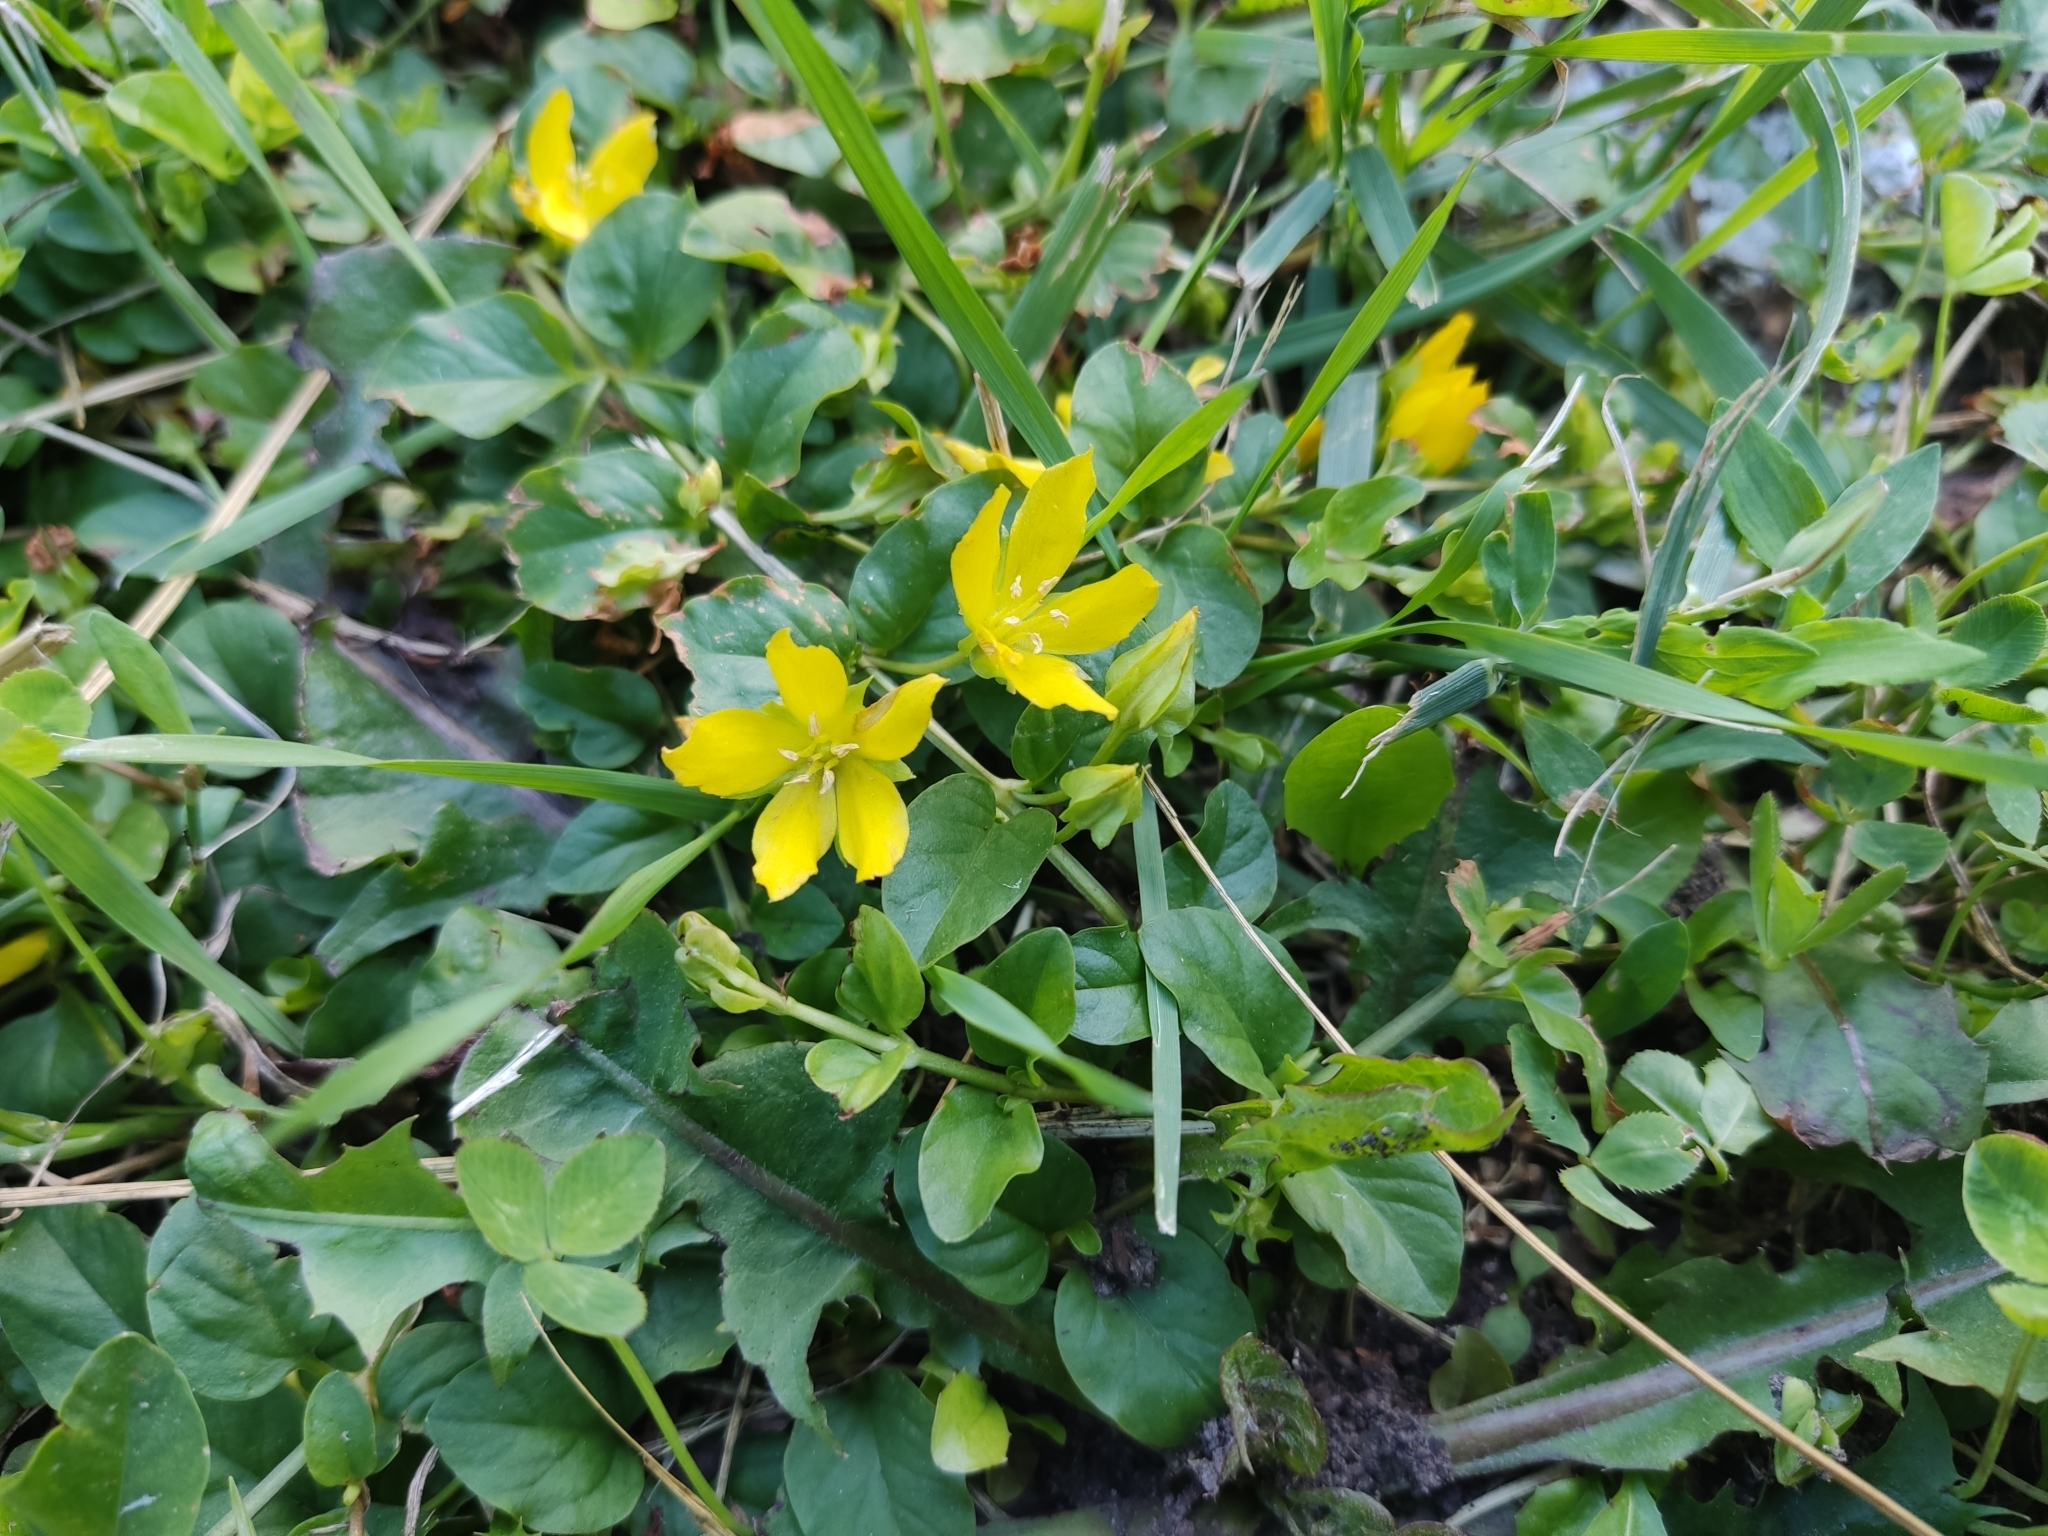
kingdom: Plantae
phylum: Tracheophyta
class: Magnoliopsida
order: Ericales
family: Primulaceae
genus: Lysimachia
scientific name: Lysimachia nummularia
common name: Moneywort
